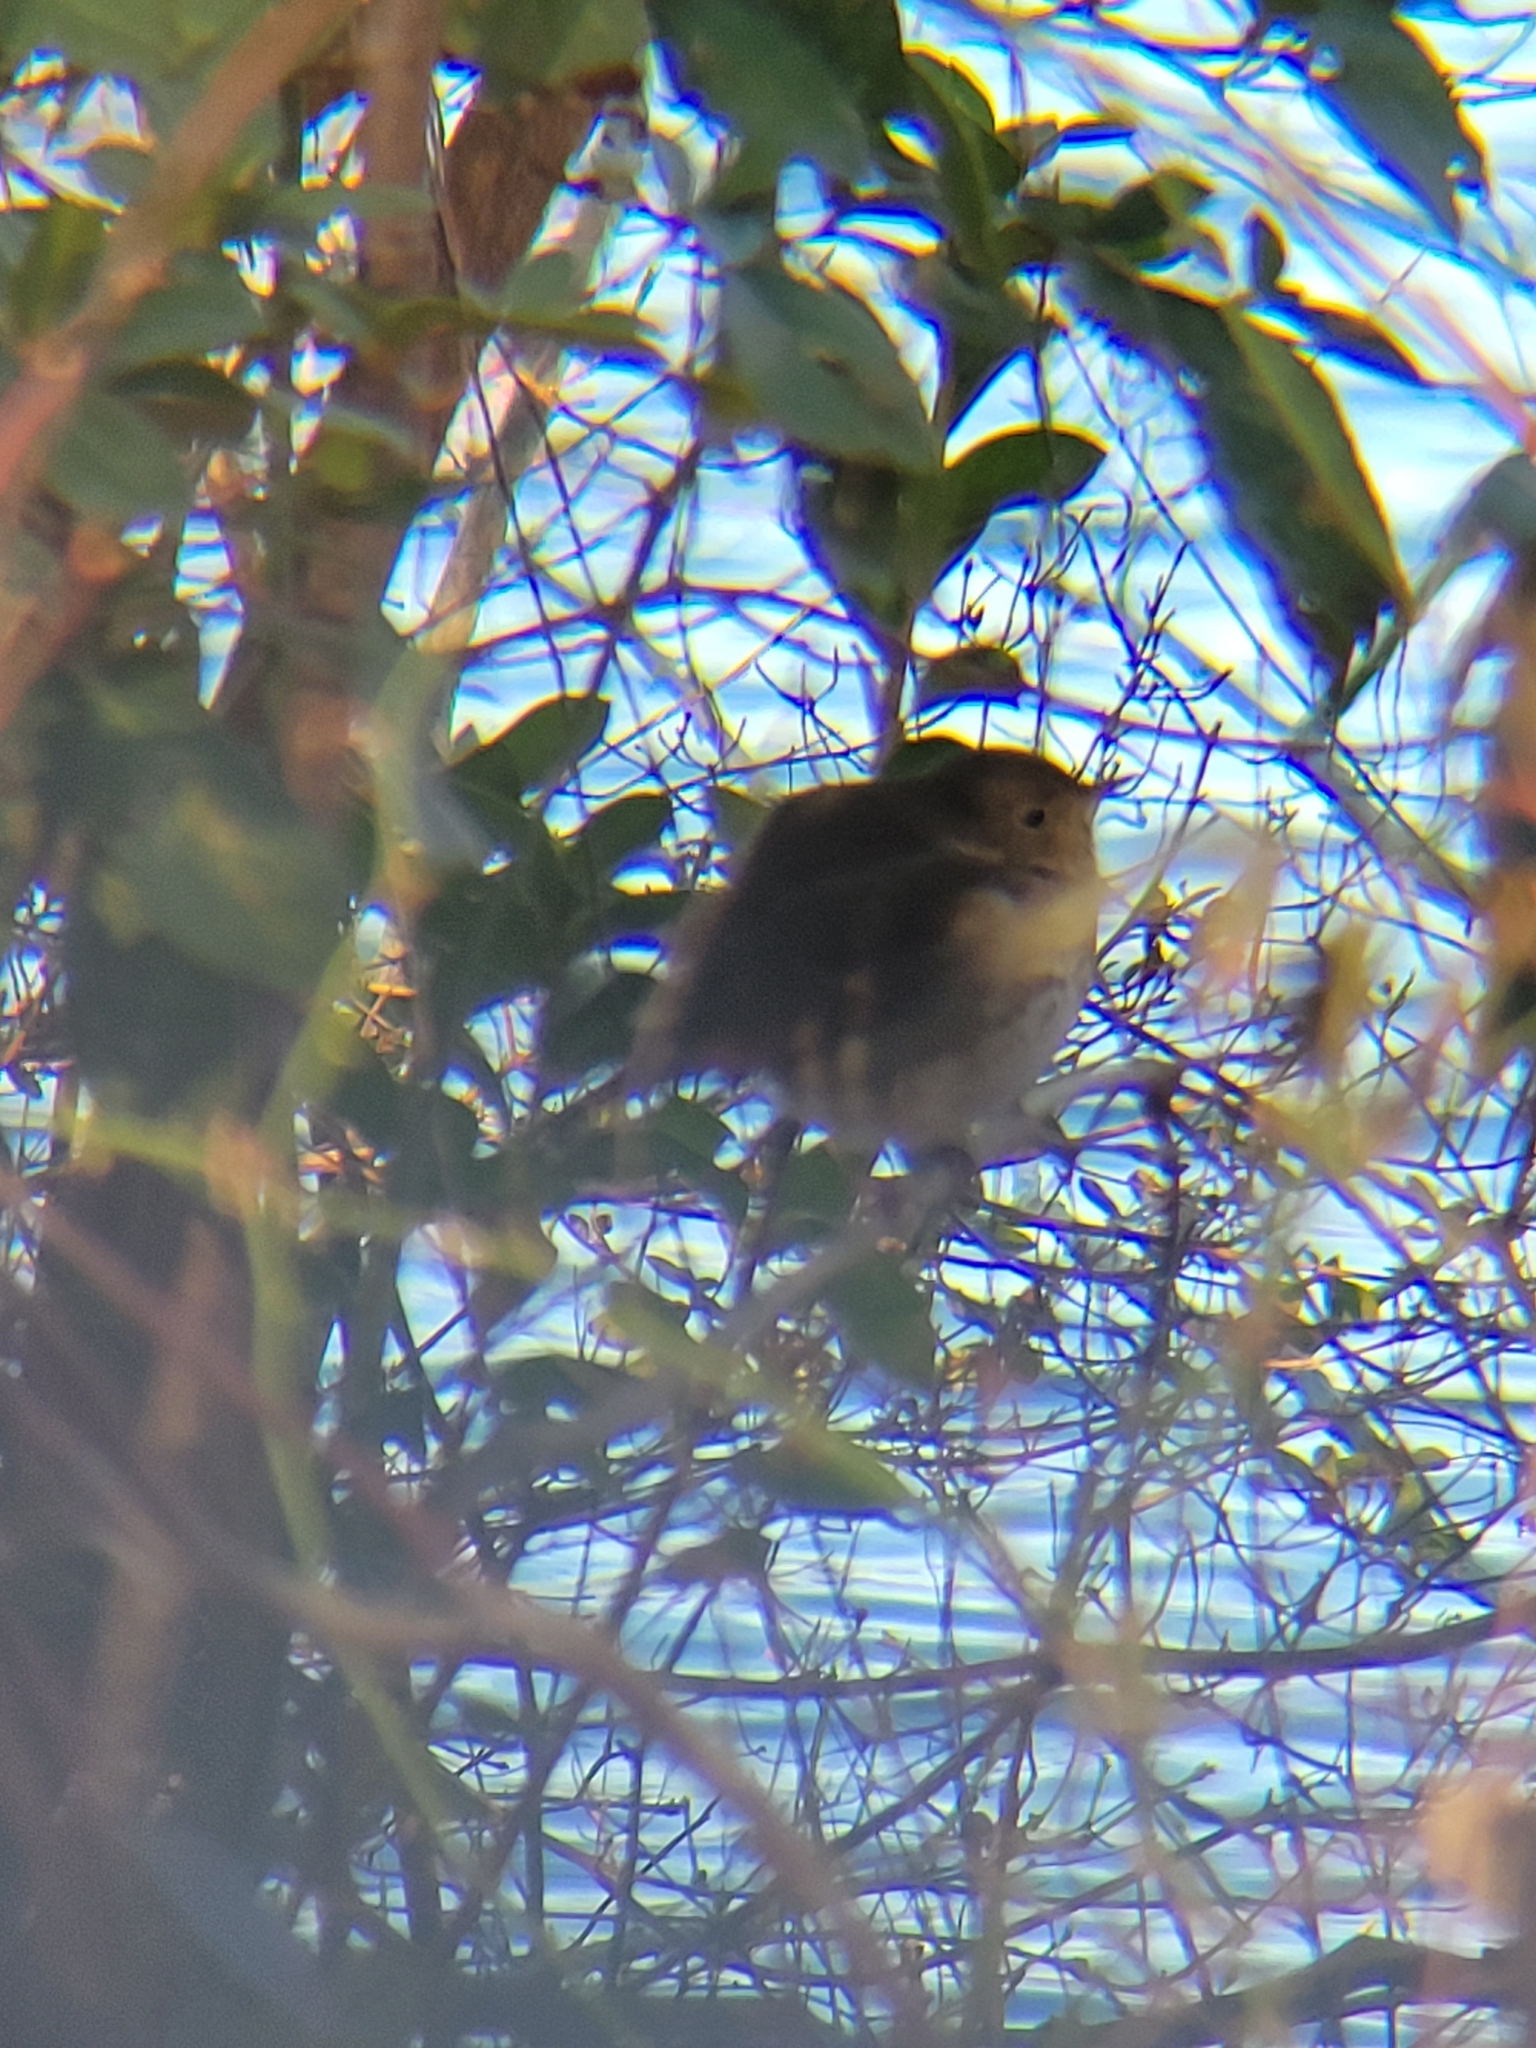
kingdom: Animalia
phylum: Chordata
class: Aves
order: Passeriformes
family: Turdidae
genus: Catharus
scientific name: Catharus guttatus
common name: Hermit thrush
